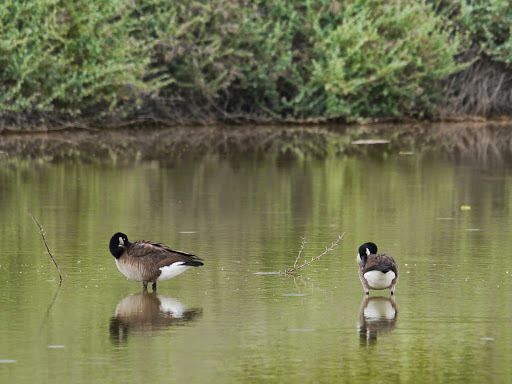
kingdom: Animalia
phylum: Chordata
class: Aves
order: Anseriformes
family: Anatidae
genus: Branta
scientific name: Branta canadensis
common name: Canada goose
